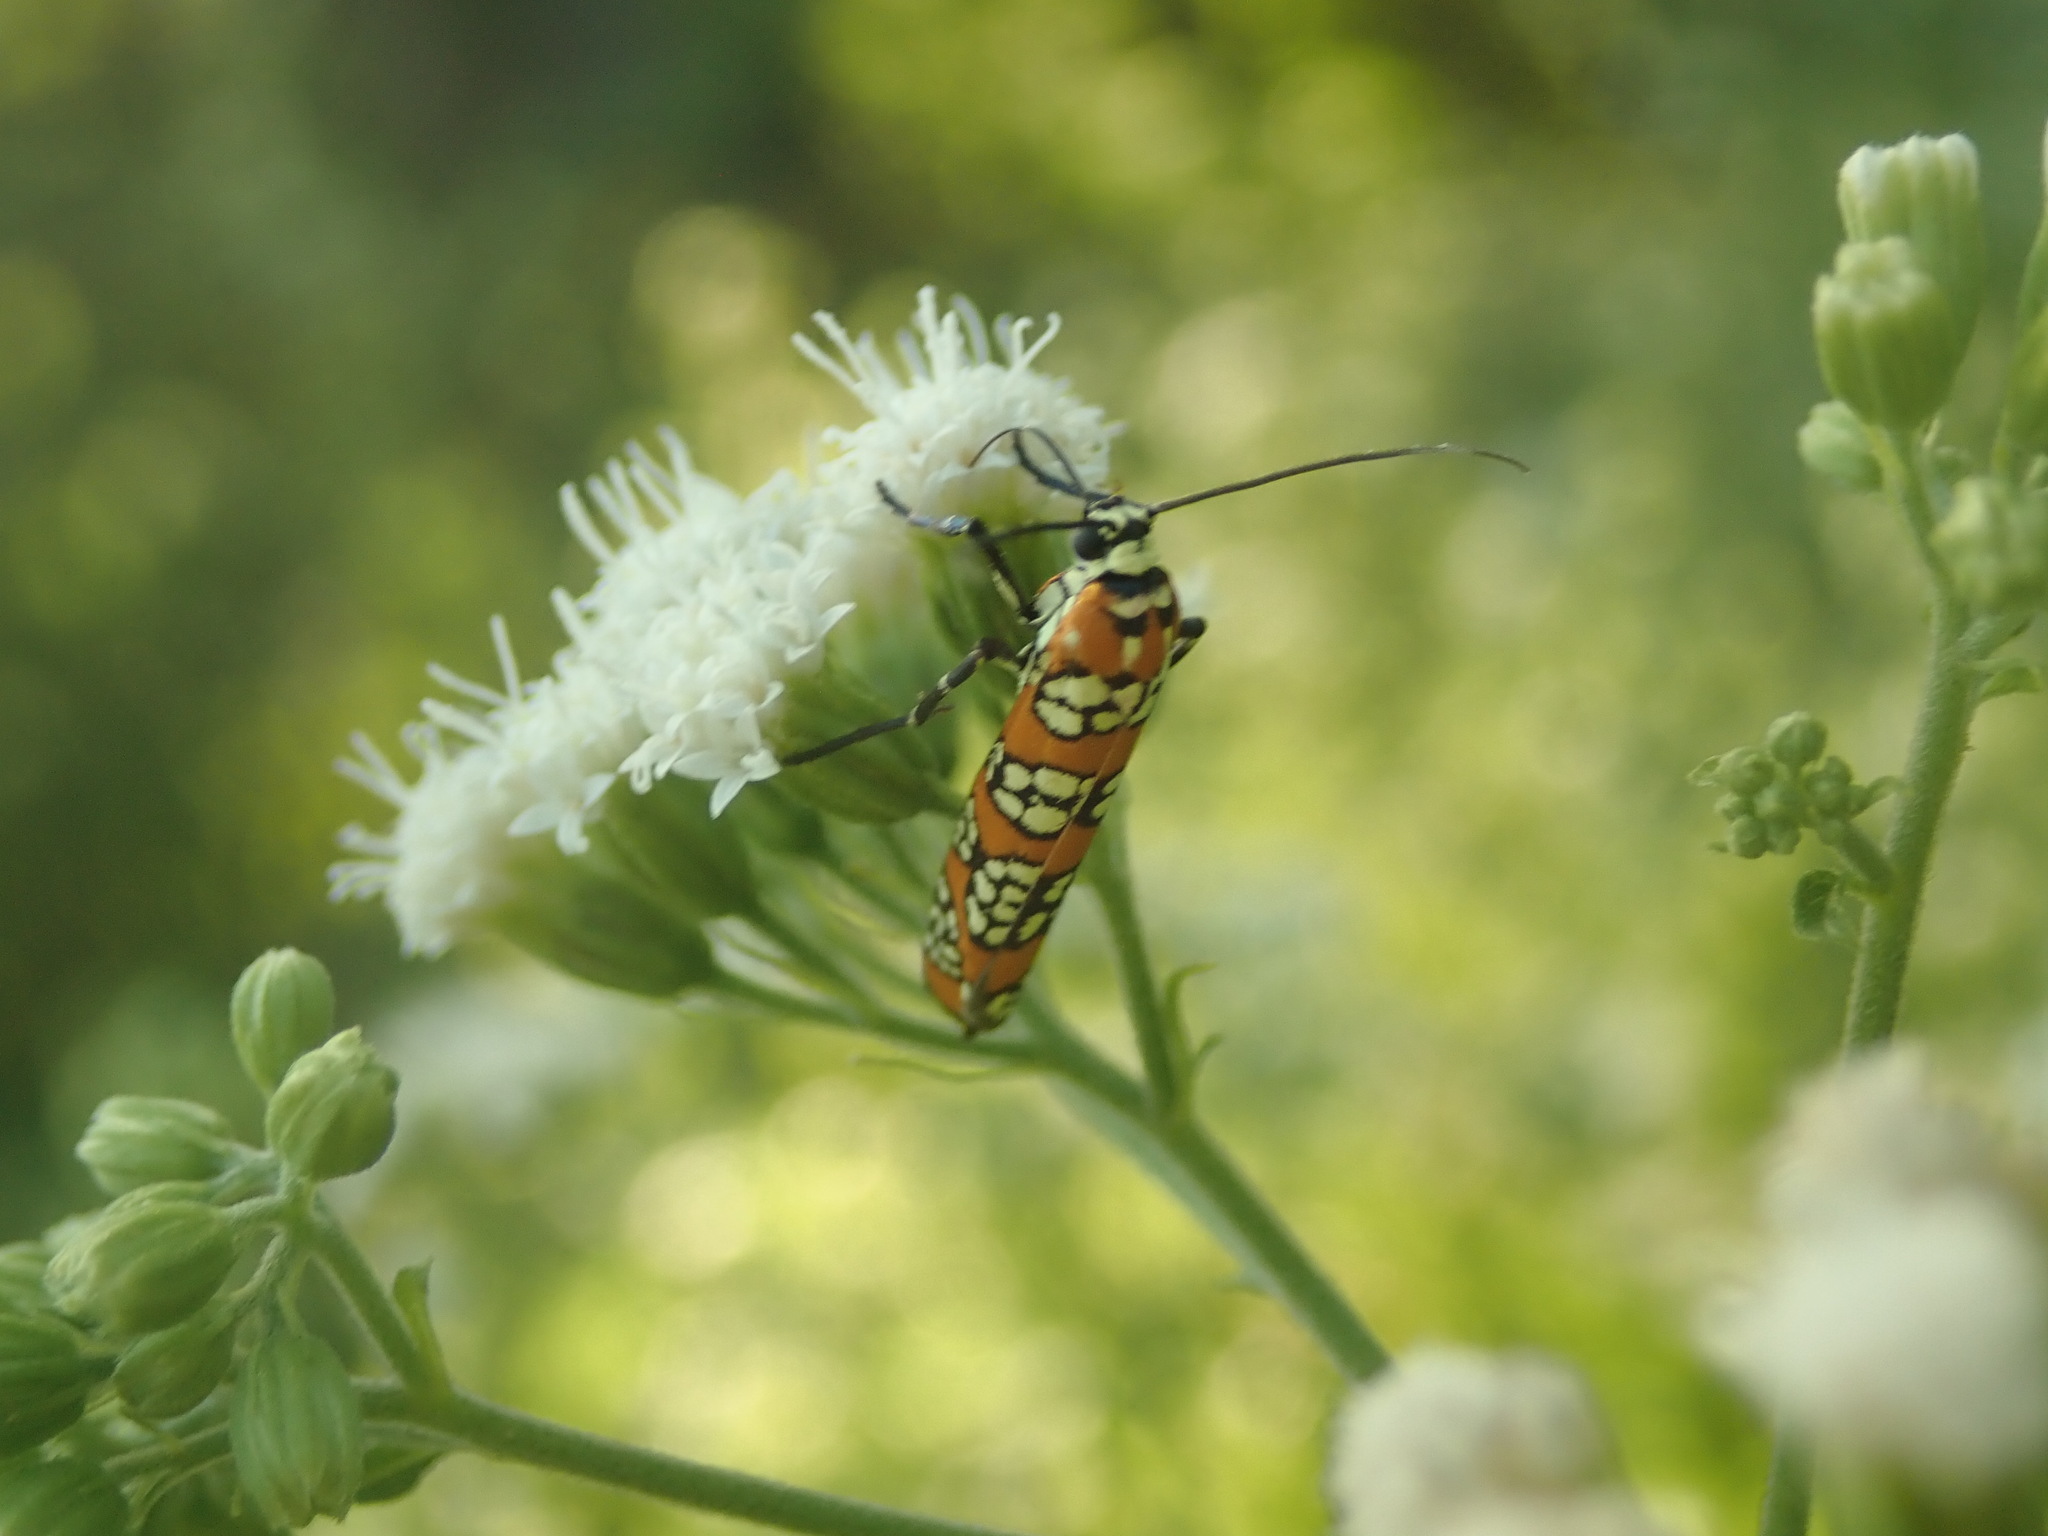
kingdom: Animalia
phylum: Arthropoda
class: Insecta
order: Lepidoptera
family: Attevidae
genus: Atteva
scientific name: Atteva punctella
